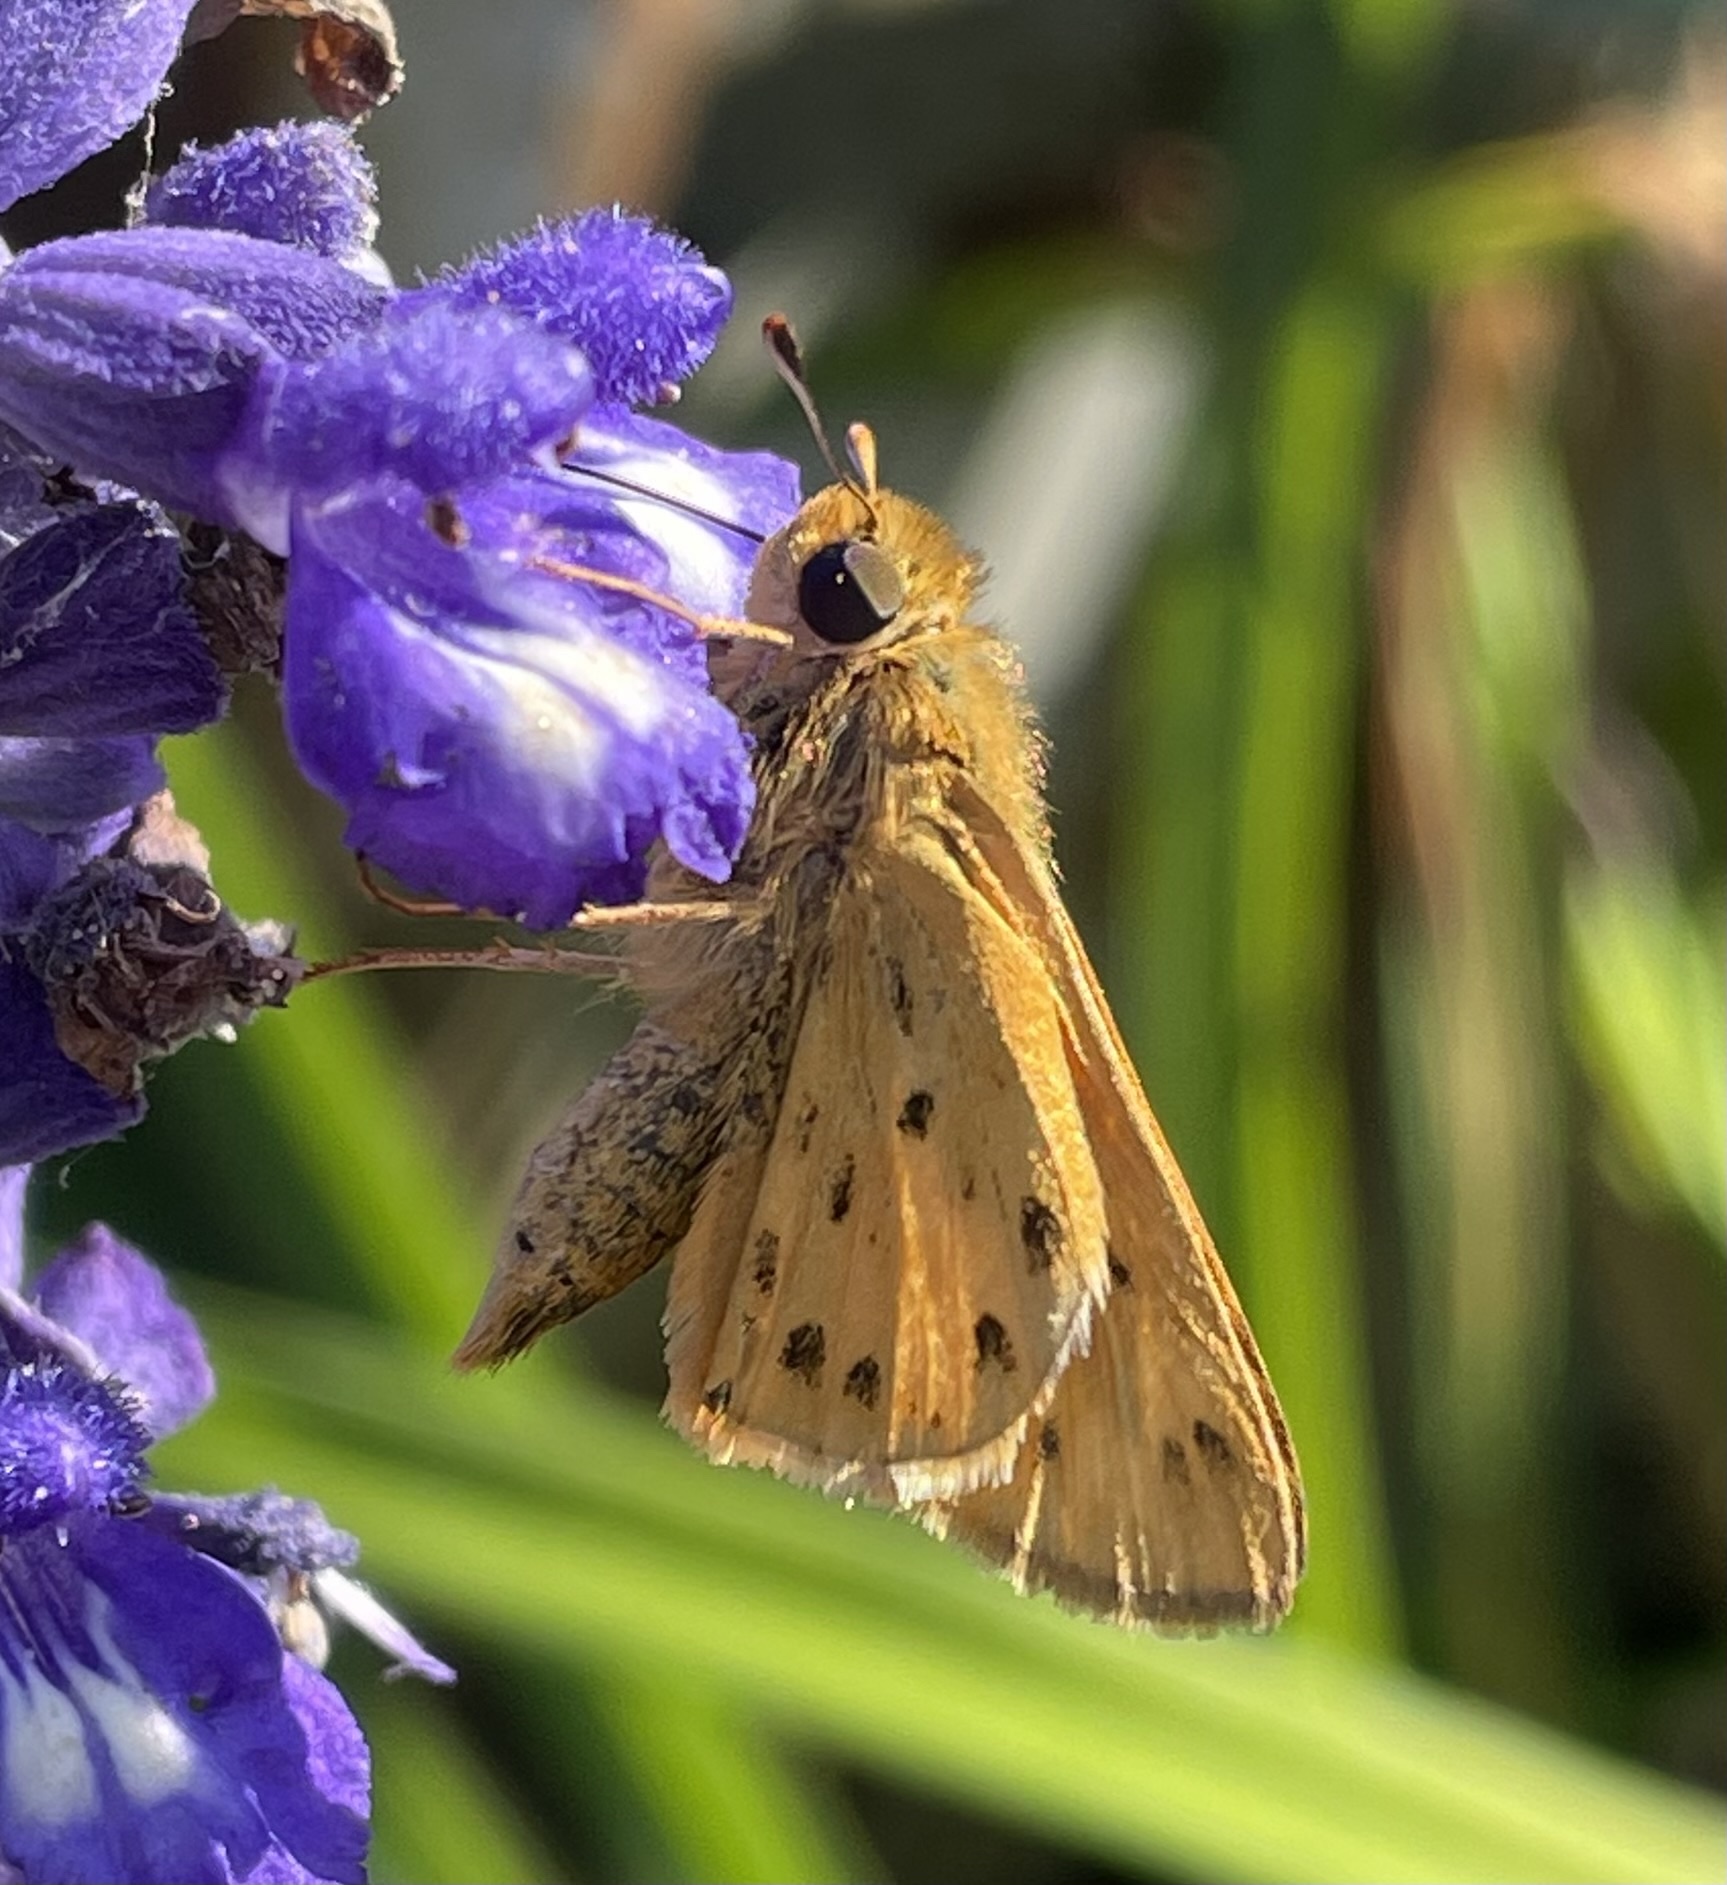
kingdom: Animalia
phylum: Arthropoda
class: Insecta
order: Lepidoptera
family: Hesperiidae
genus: Hylephila
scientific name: Hylephila phyleus
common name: Fiery skipper
